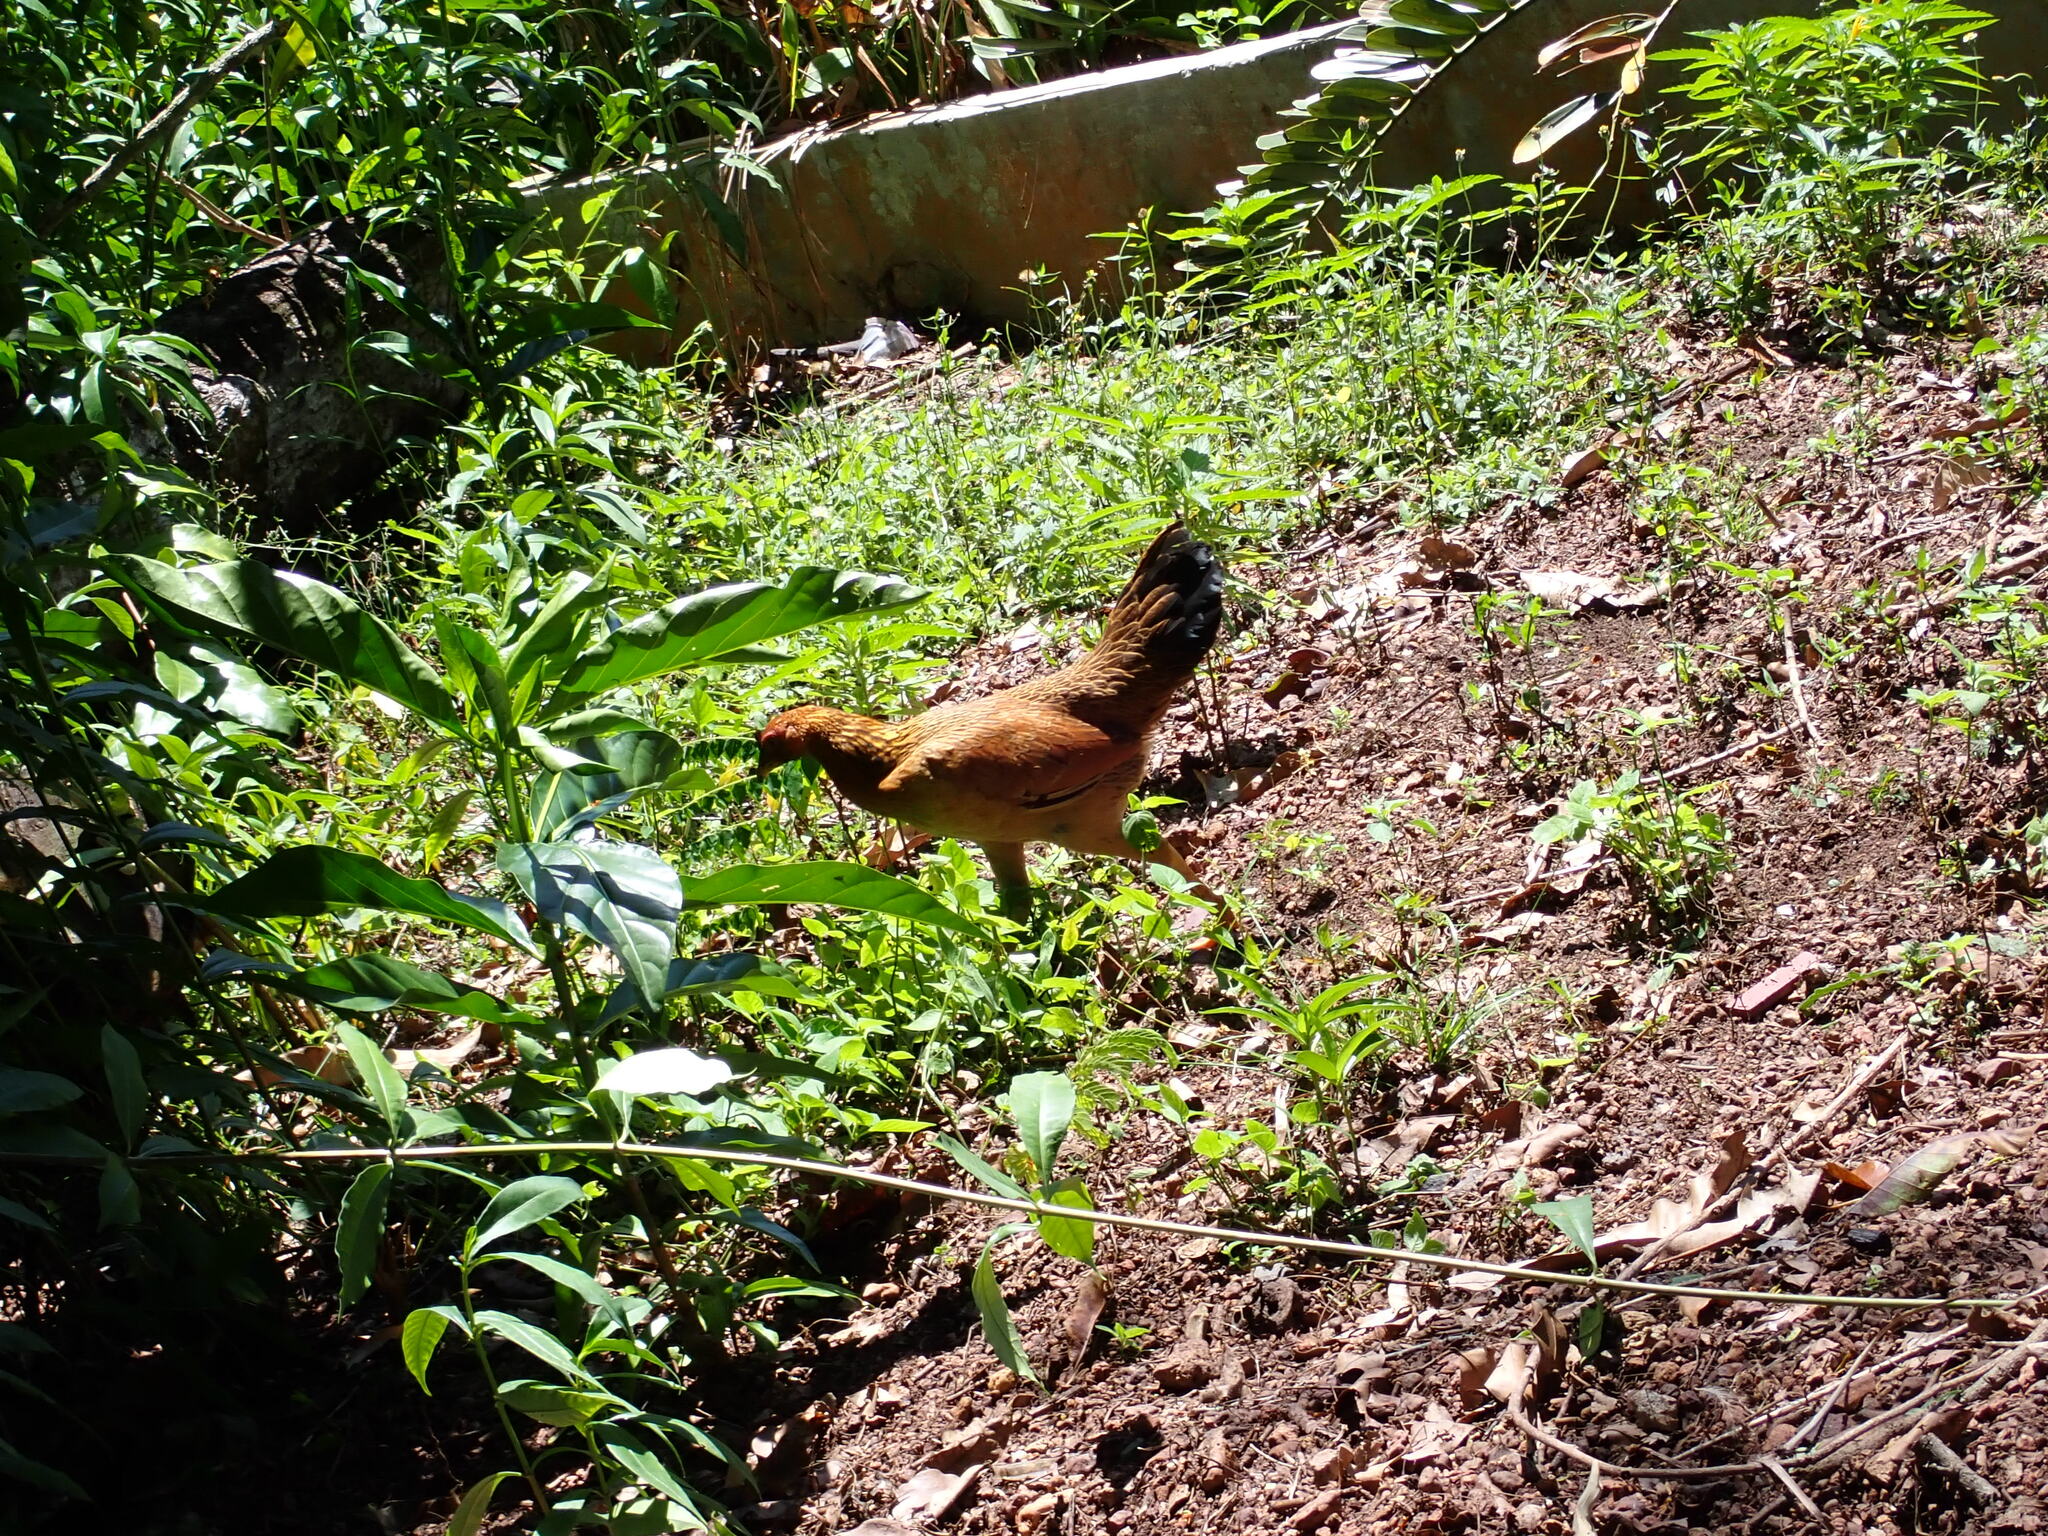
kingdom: Animalia
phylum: Chordata
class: Aves
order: Galliformes
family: Phasianidae
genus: Gallus
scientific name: Gallus gallus
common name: Red junglefowl
